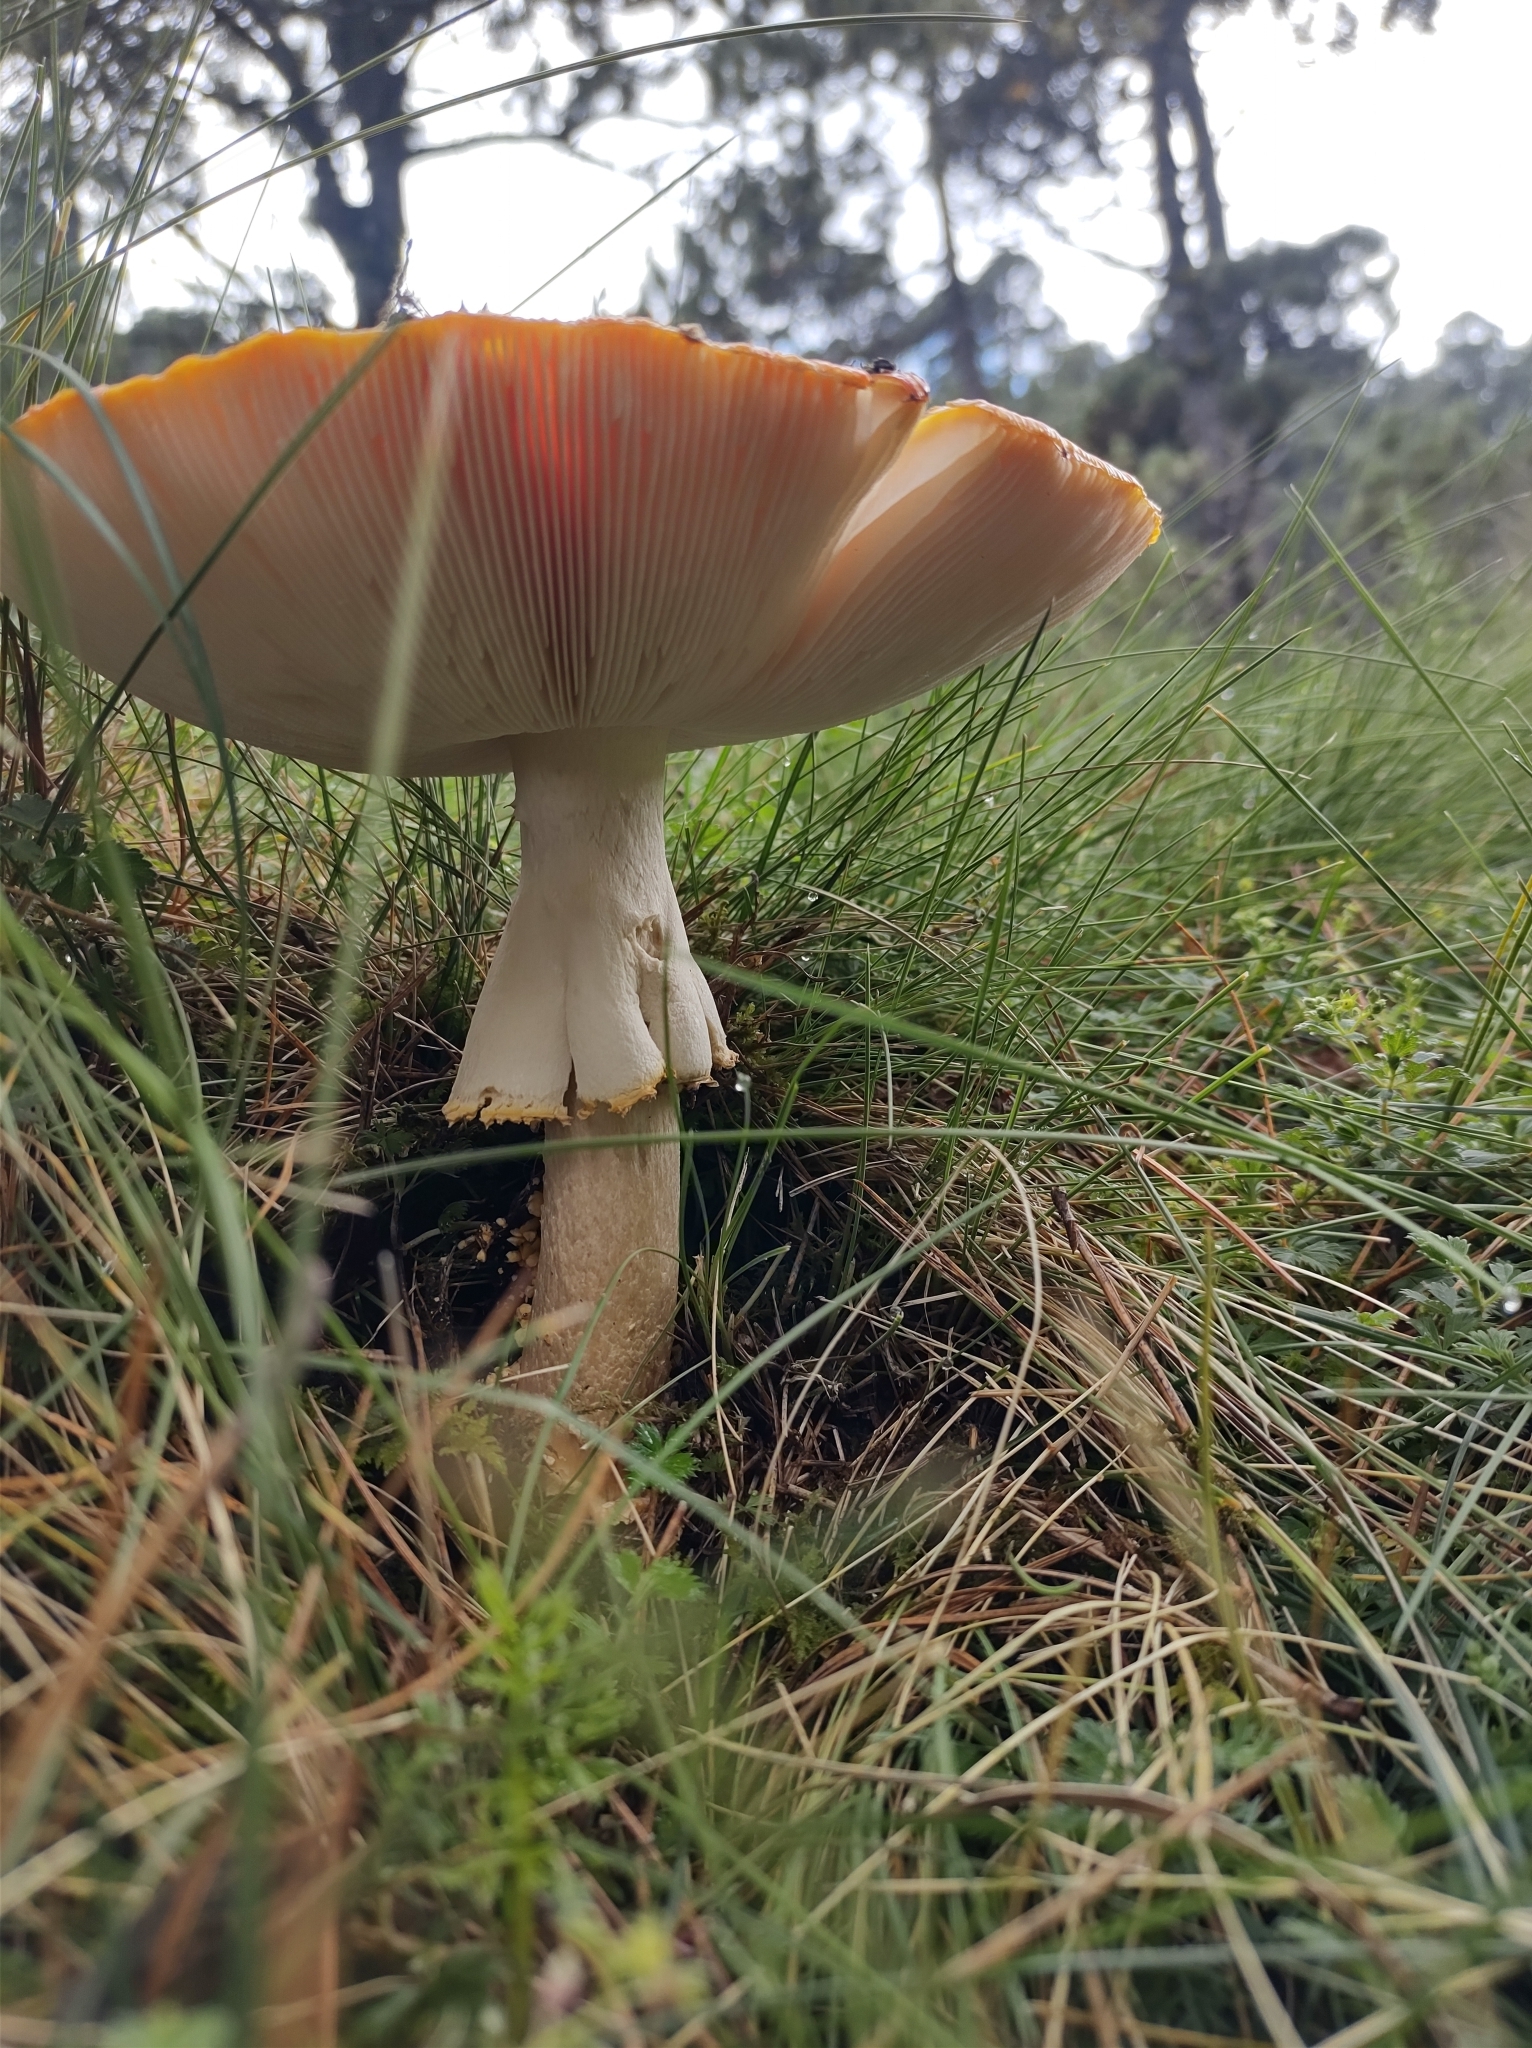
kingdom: Fungi
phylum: Basidiomycota
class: Agaricomycetes
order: Agaricales
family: Amanitaceae
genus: Amanita
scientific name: Amanita muscaria
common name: Fly agaric
